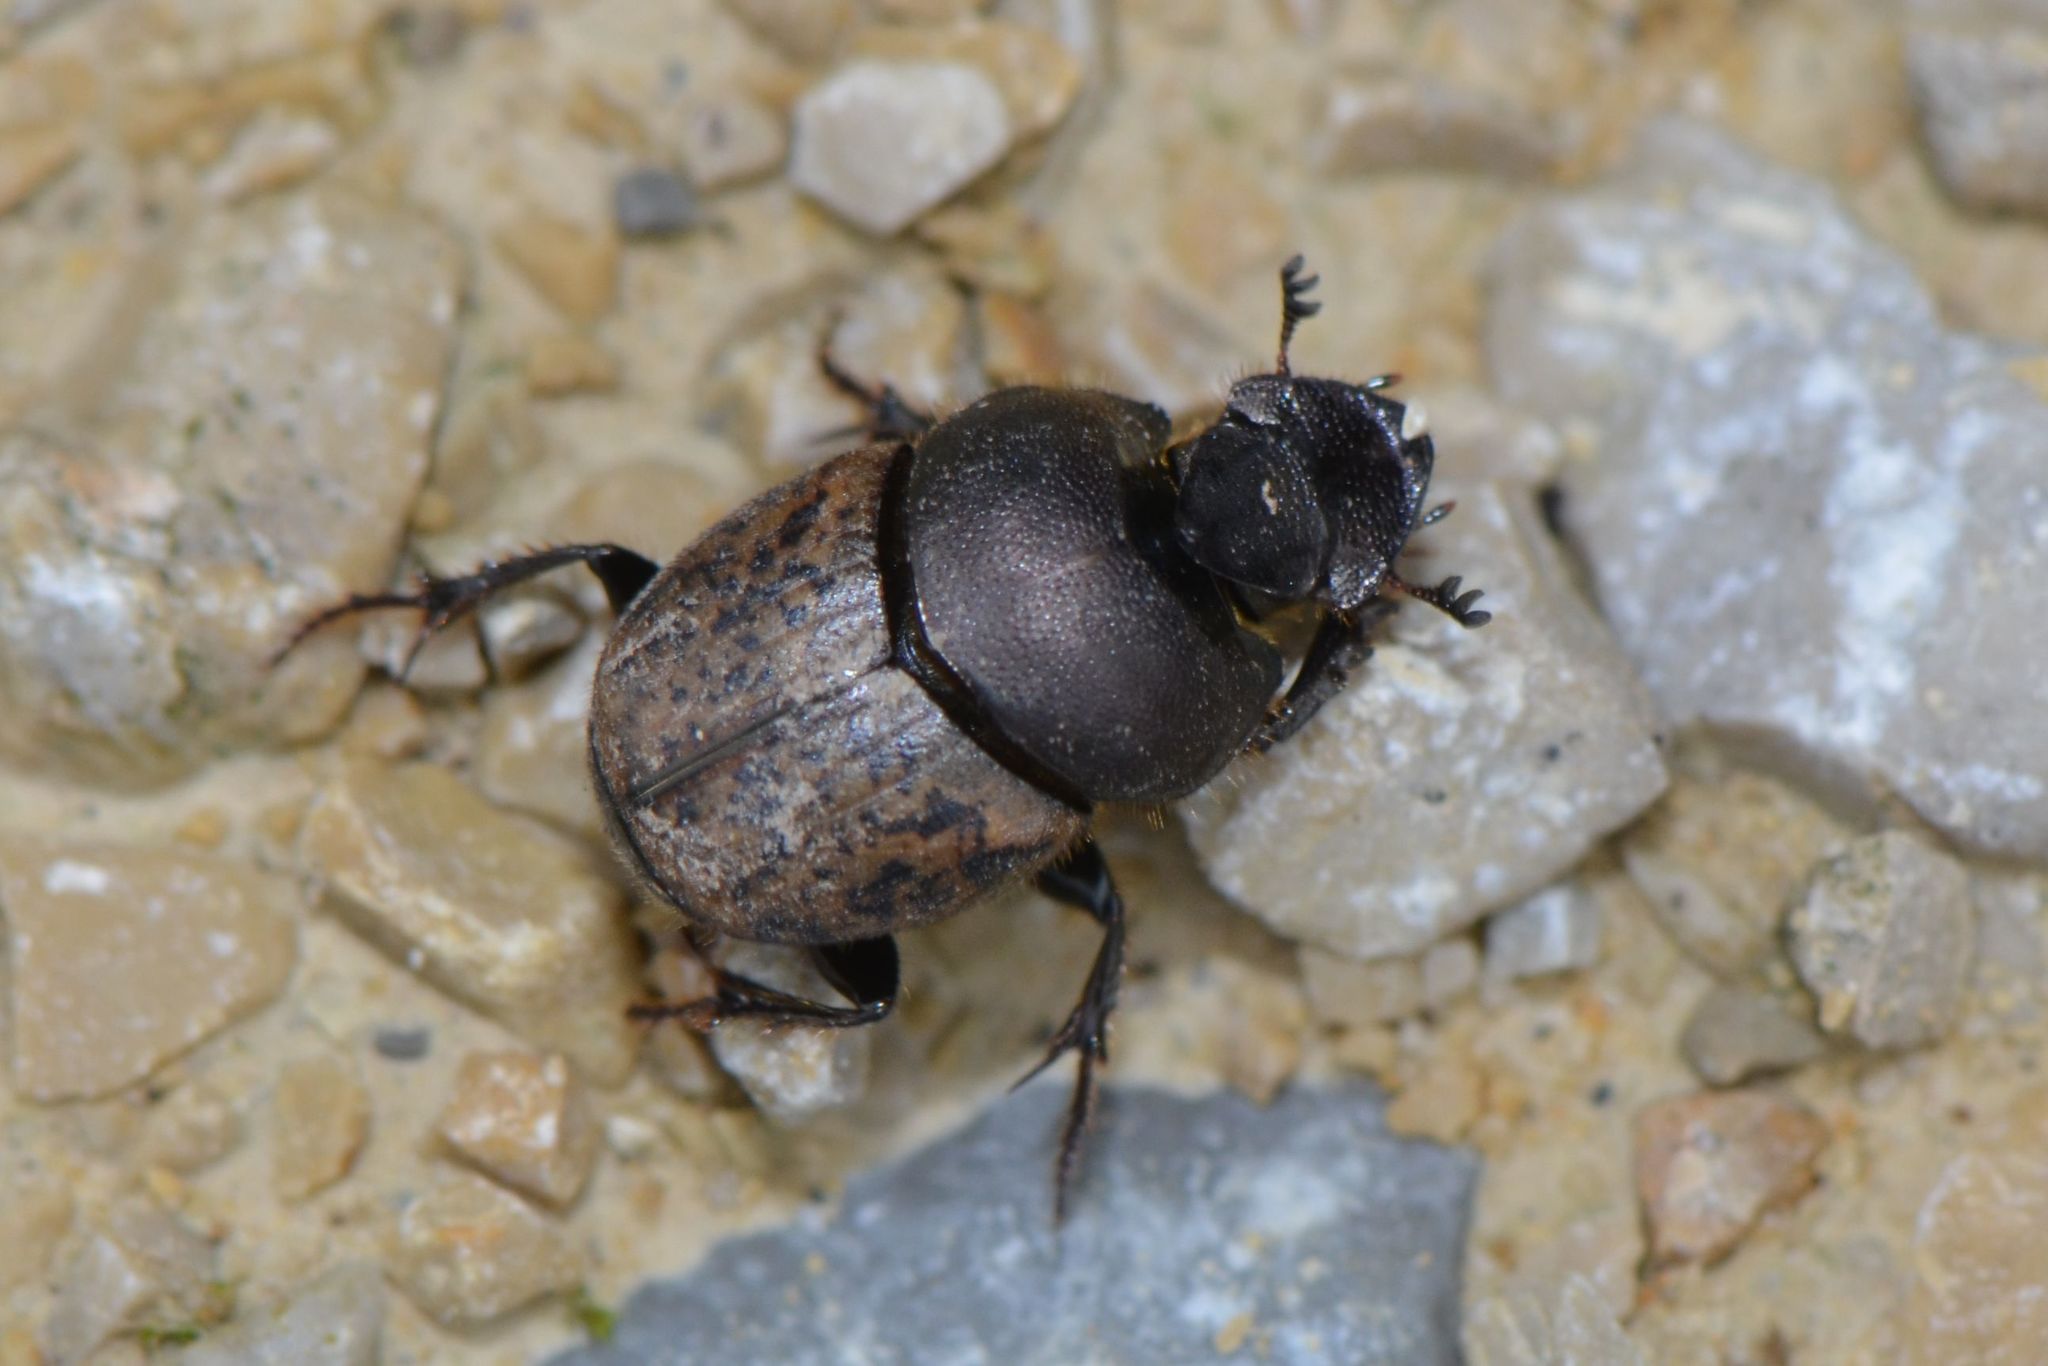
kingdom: Animalia
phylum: Arthropoda
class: Insecta
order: Coleoptera
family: Scarabaeidae
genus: Onthophagus
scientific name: Onthophagus fracticornis
